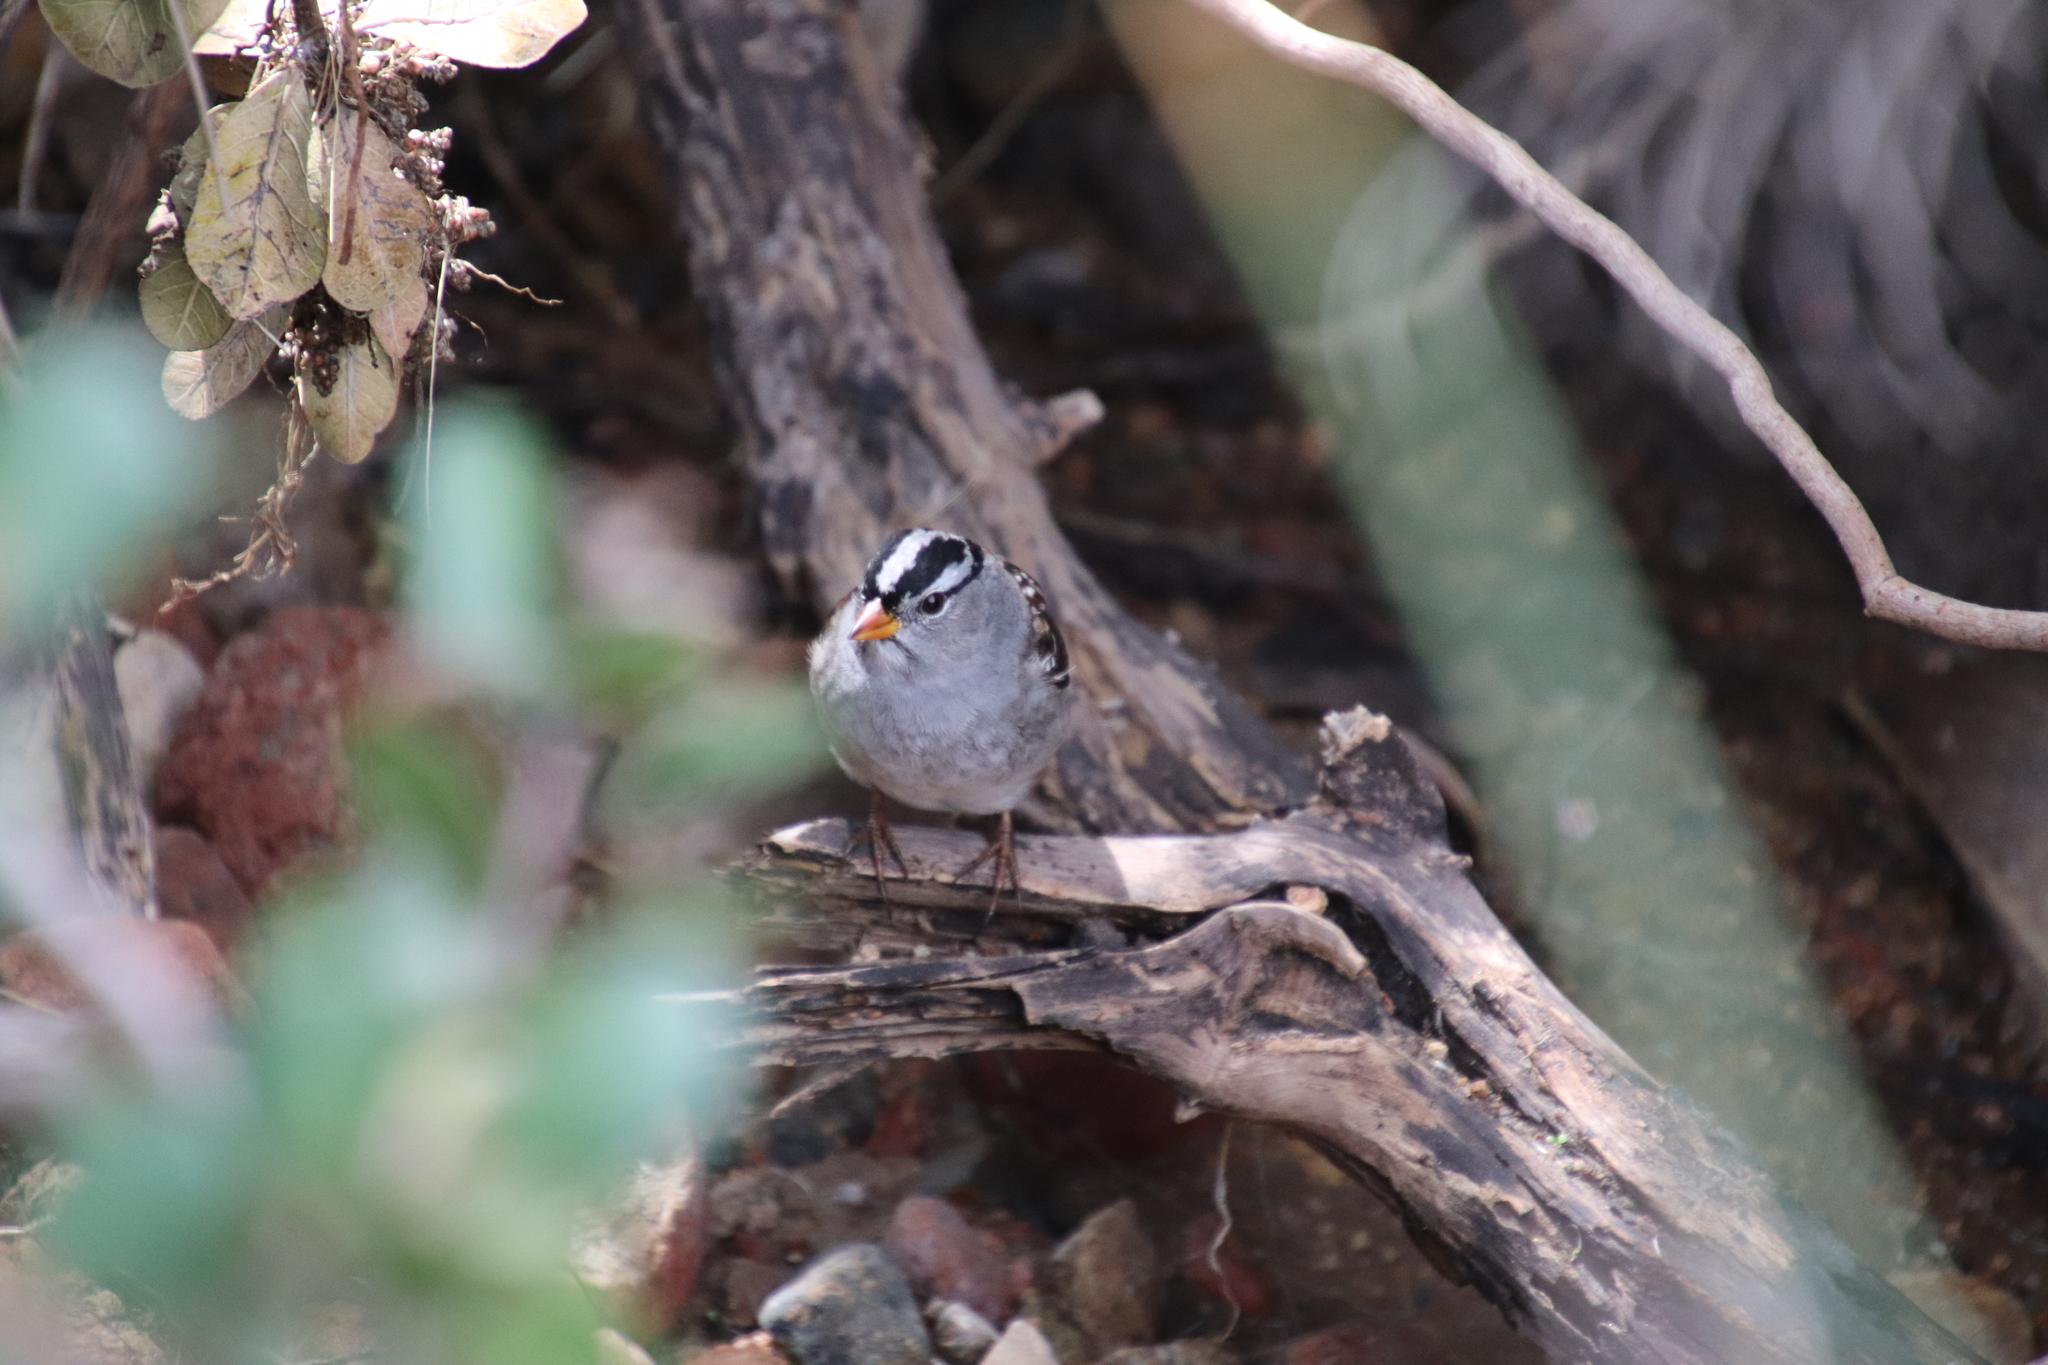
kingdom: Animalia
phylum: Chordata
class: Aves
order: Passeriformes
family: Passerellidae
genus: Zonotrichia
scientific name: Zonotrichia leucophrys
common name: White-crowned sparrow
